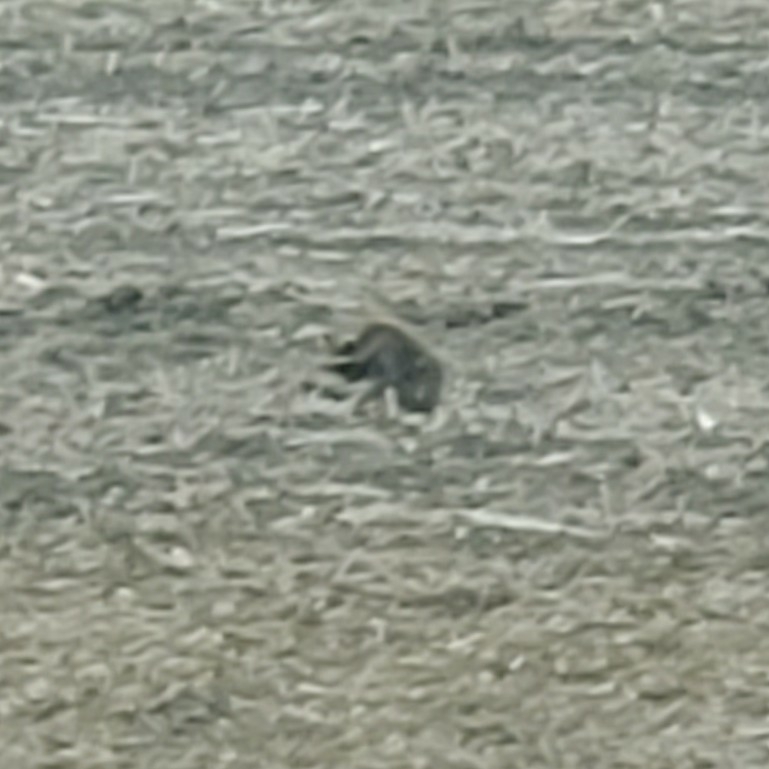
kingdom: Animalia
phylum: Chordata
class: Mammalia
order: Carnivora
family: Procyonidae
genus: Procyon
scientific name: Procyon lotor
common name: Raccoon
